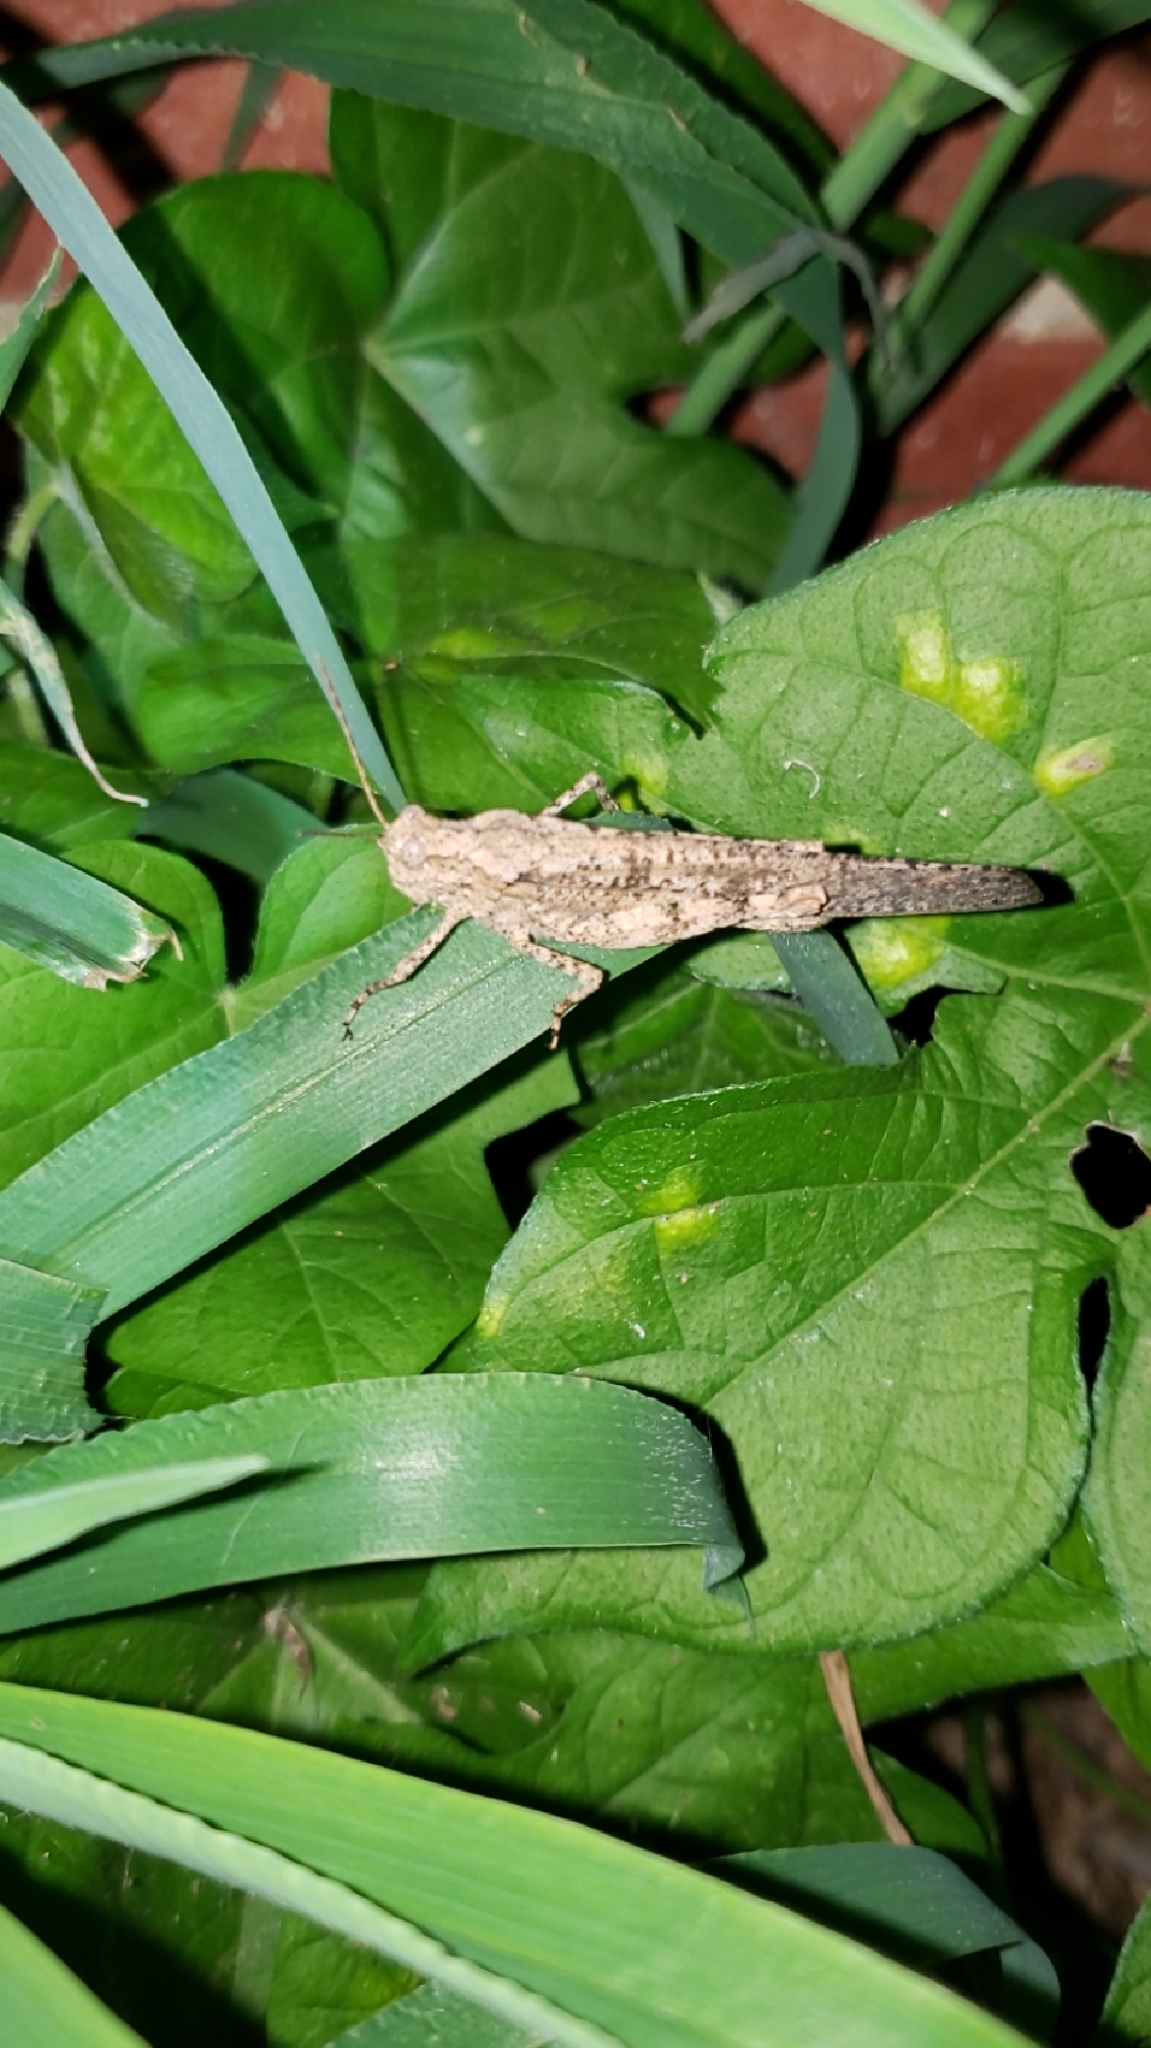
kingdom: Animalia
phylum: Arthropoda
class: Insecta
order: Orthoptera
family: Acrididae
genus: Dissosteira
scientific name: Dissosteira carolina
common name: Carolina grasshopper
